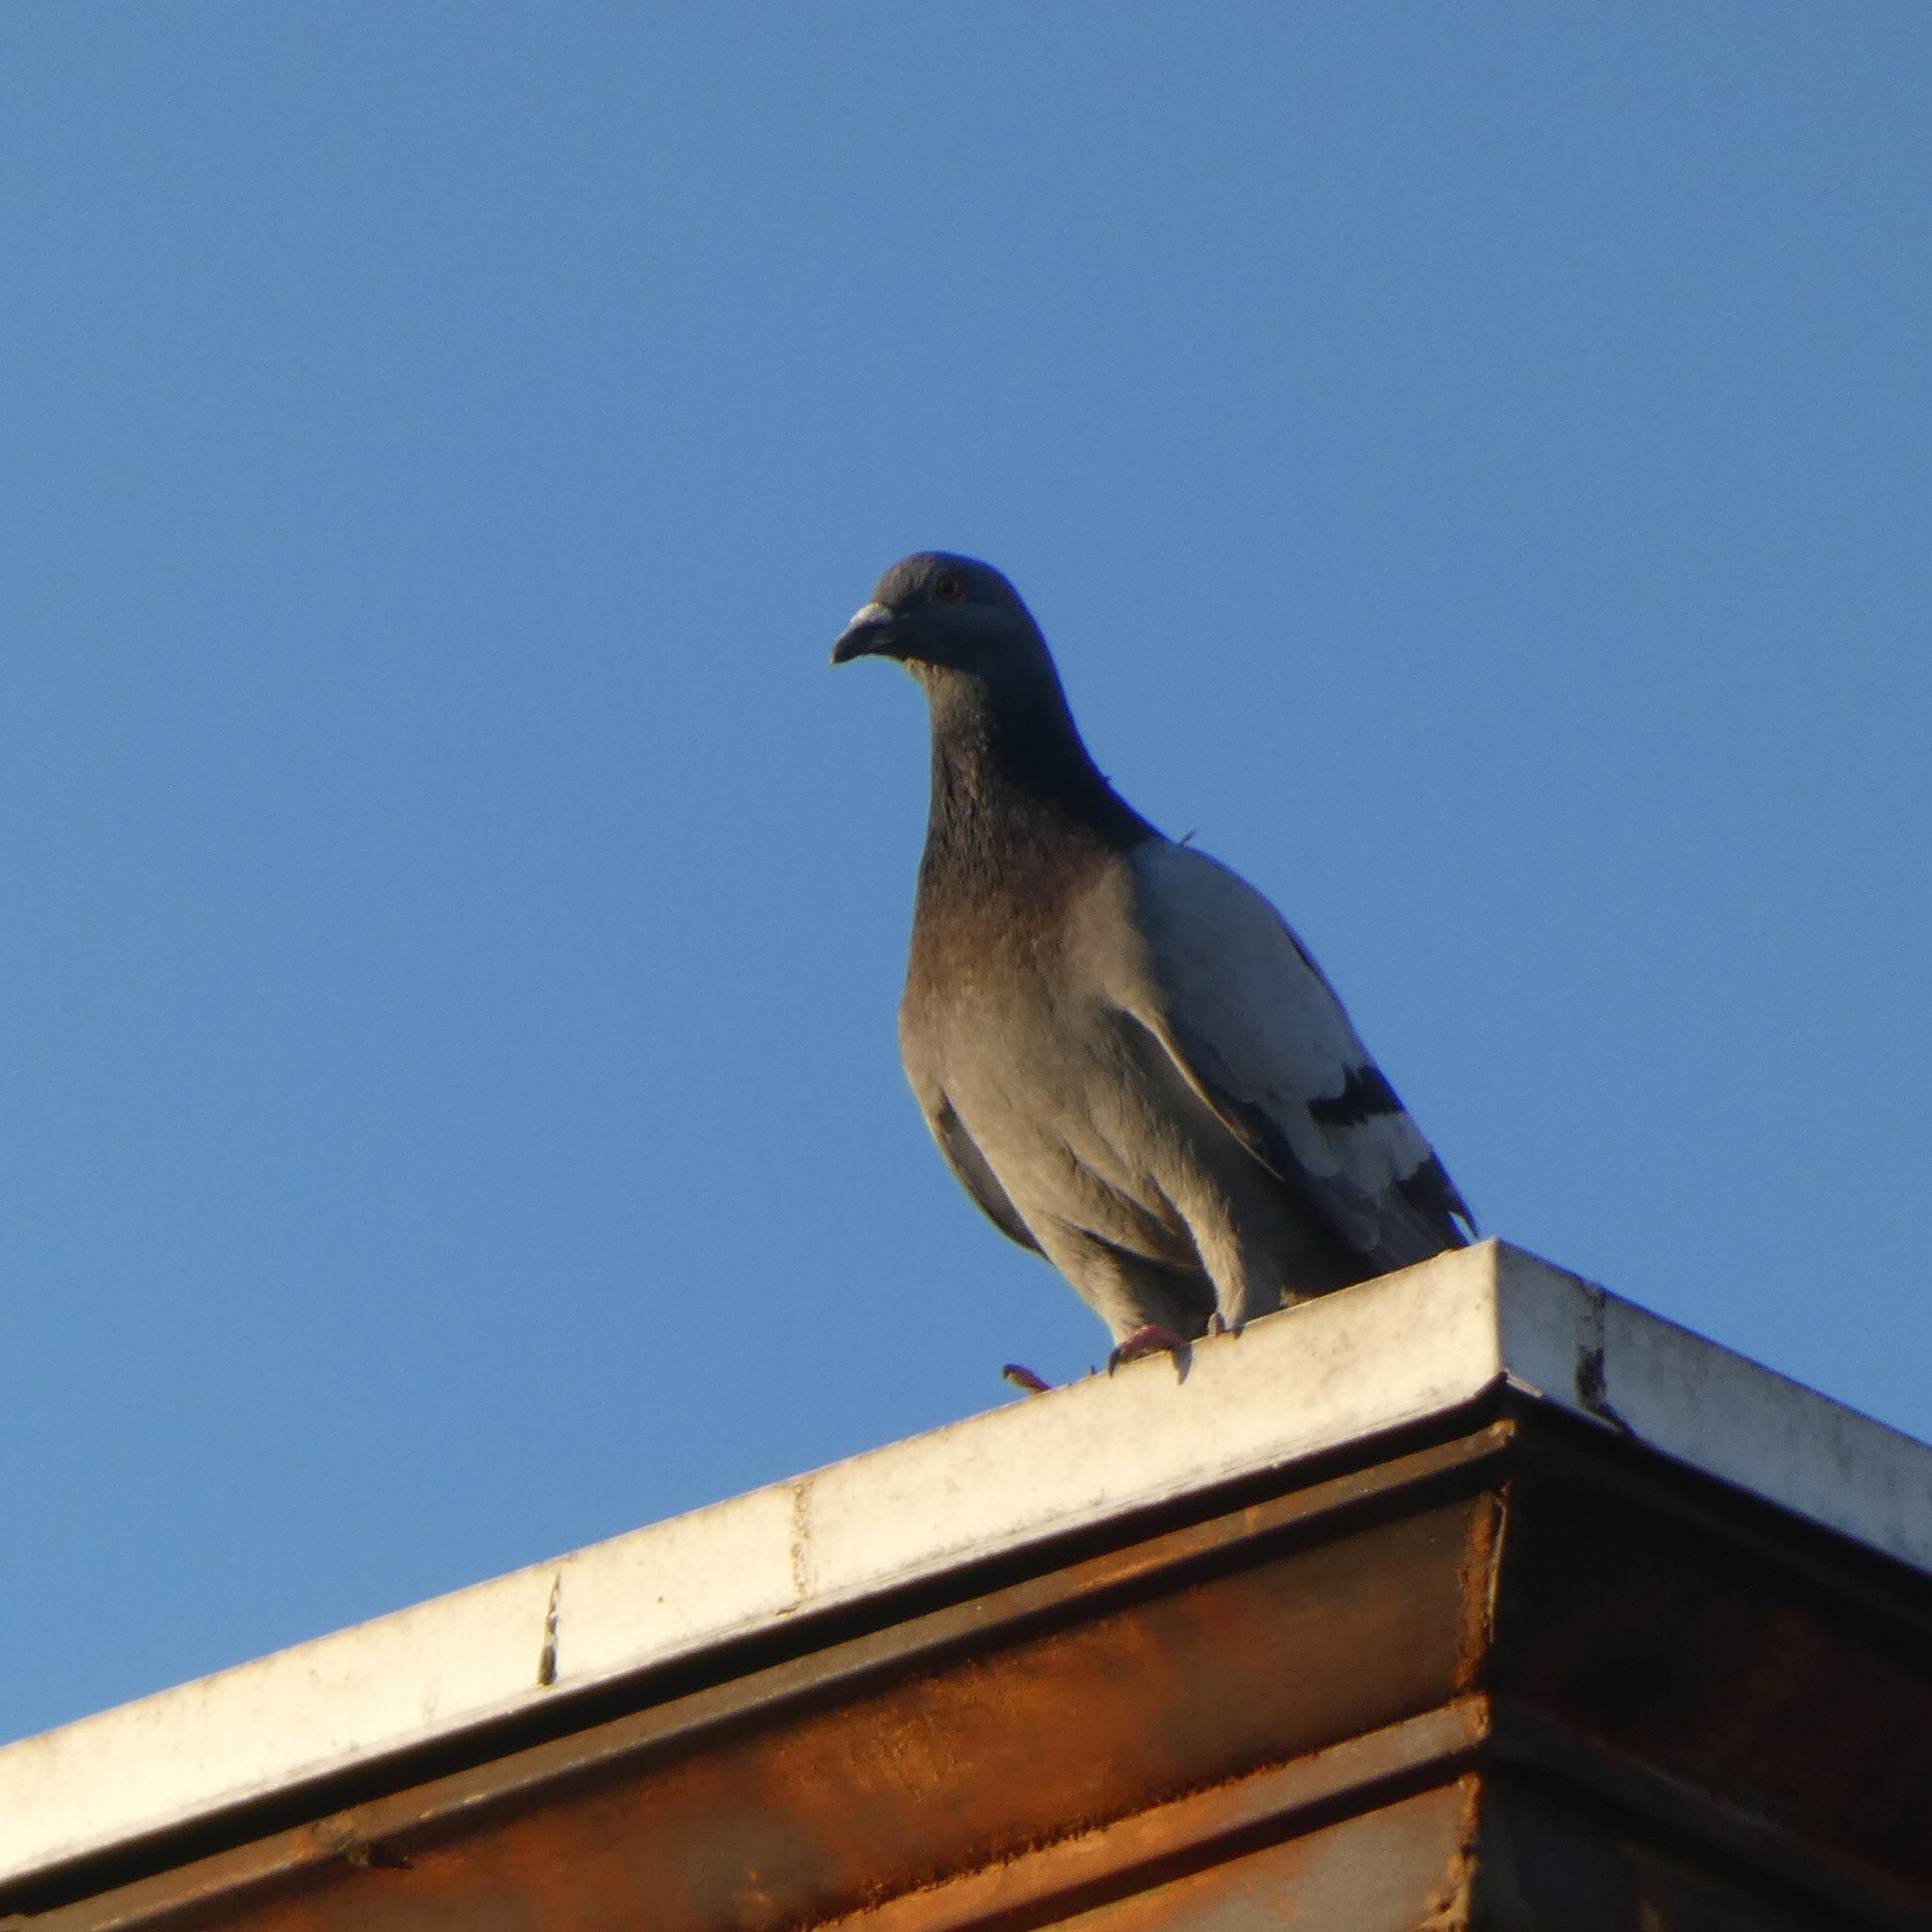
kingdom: Animalia
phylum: Chordata
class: Aves
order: Columbiformes
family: Columbidae
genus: Columba
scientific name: Columba livia
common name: Rock pigeon
